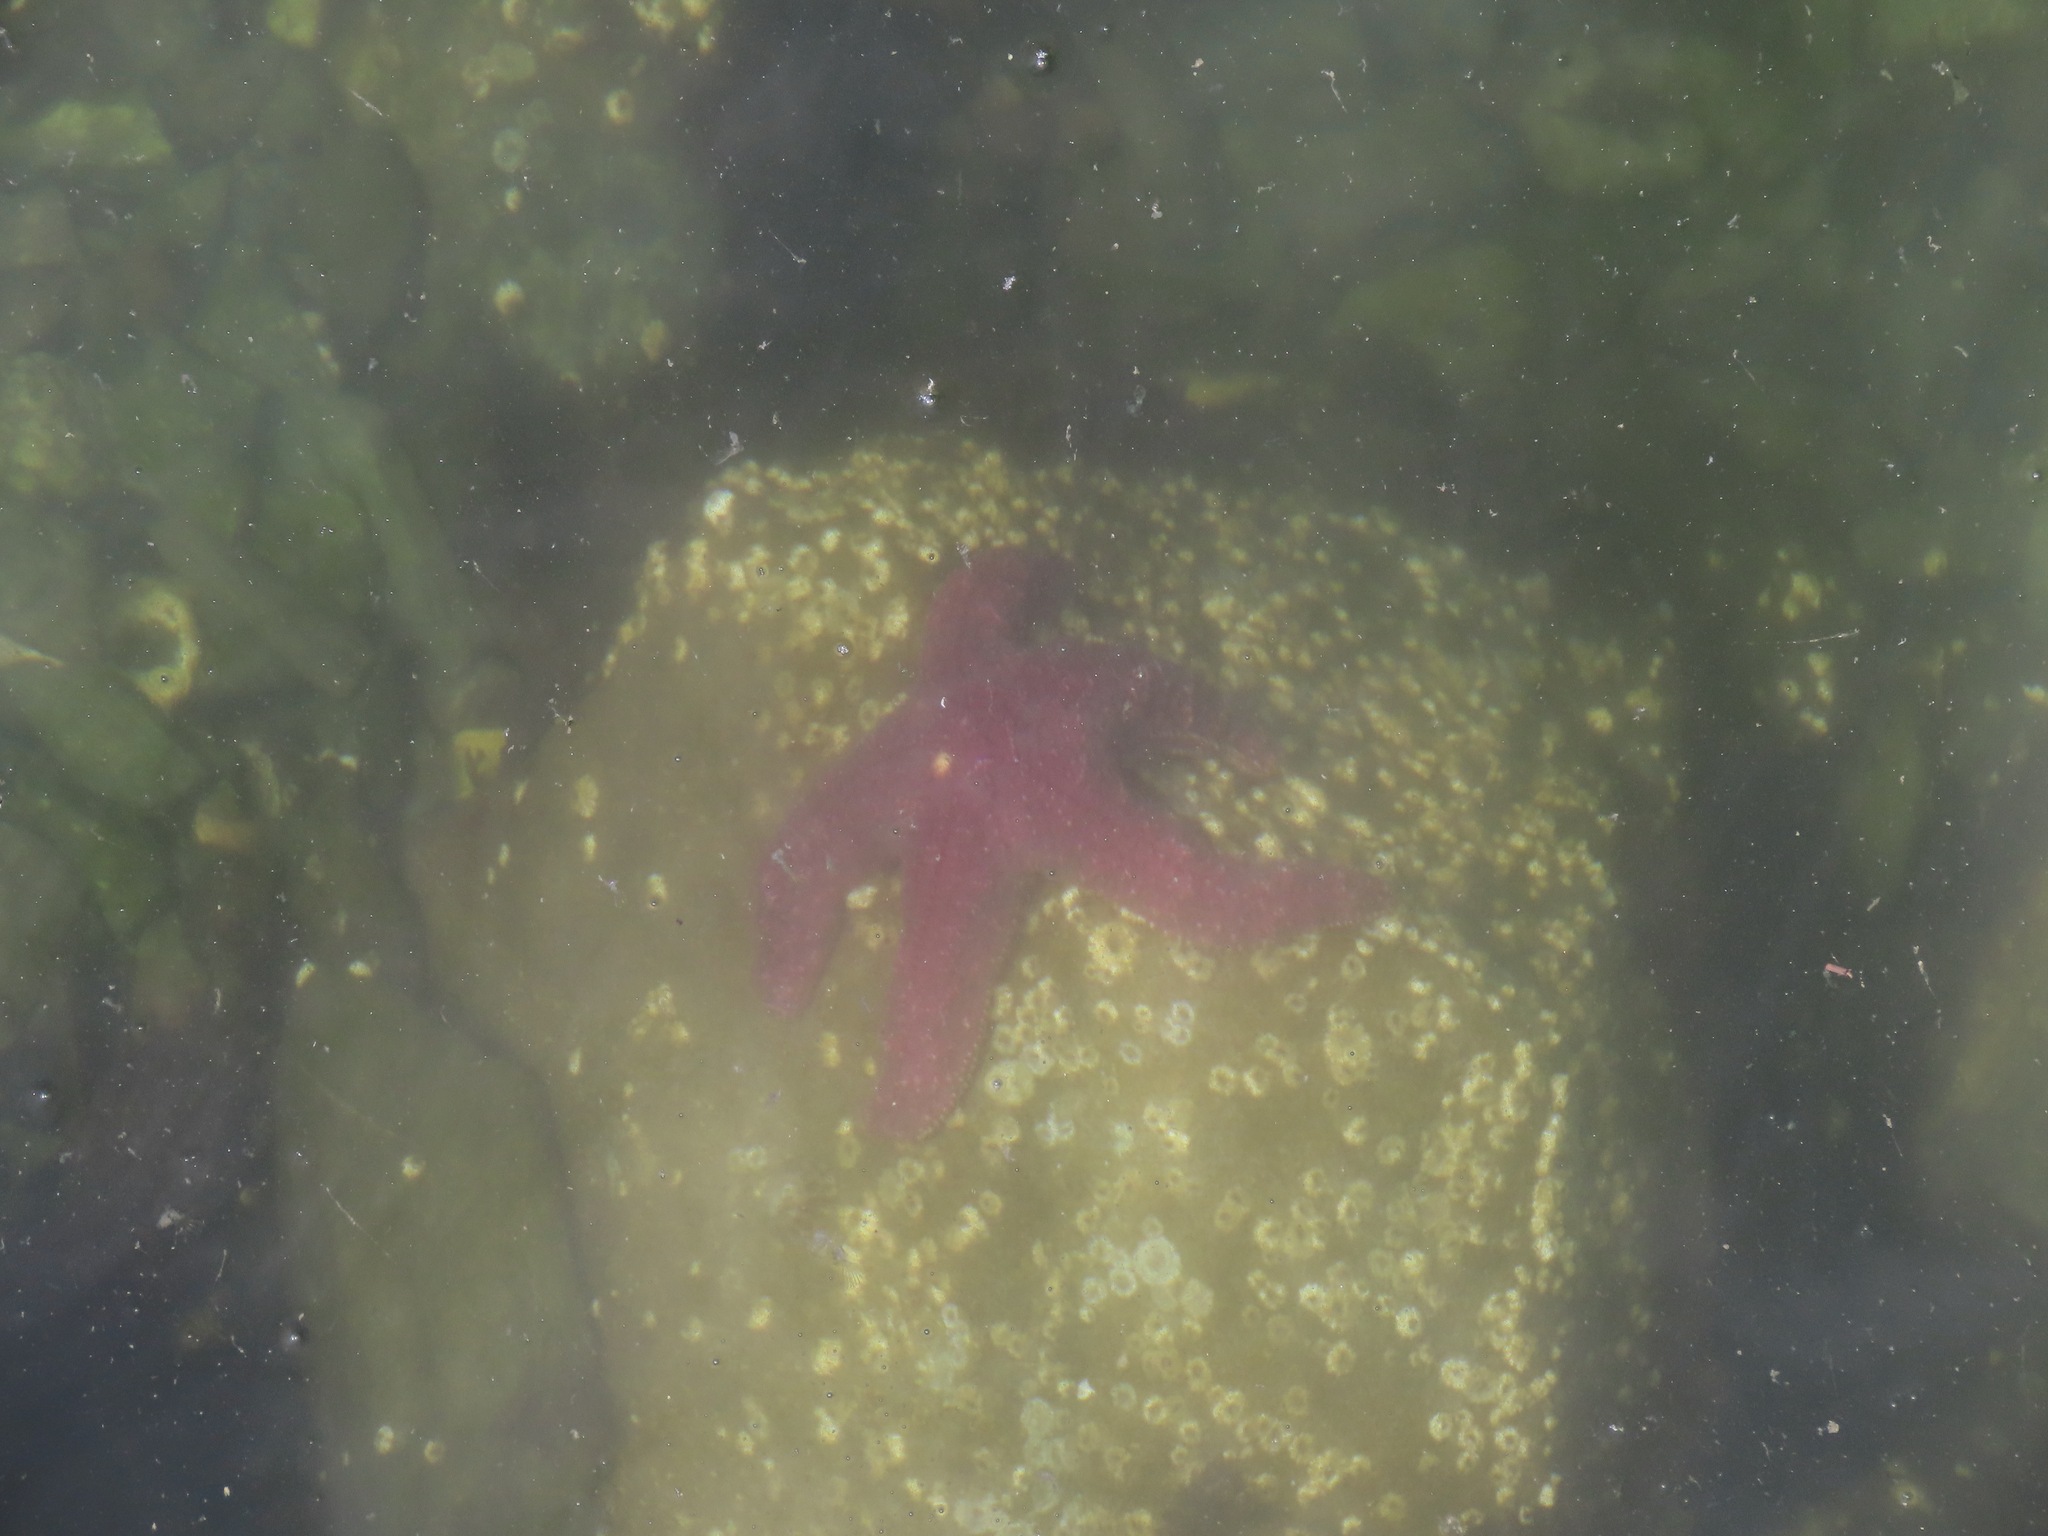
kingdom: Animalia
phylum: Echinodermata
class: Asteroidea
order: Forcipulatida
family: Asteriidae
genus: Pisaster
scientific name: Pisaster ochraceus
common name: Ochre stars
